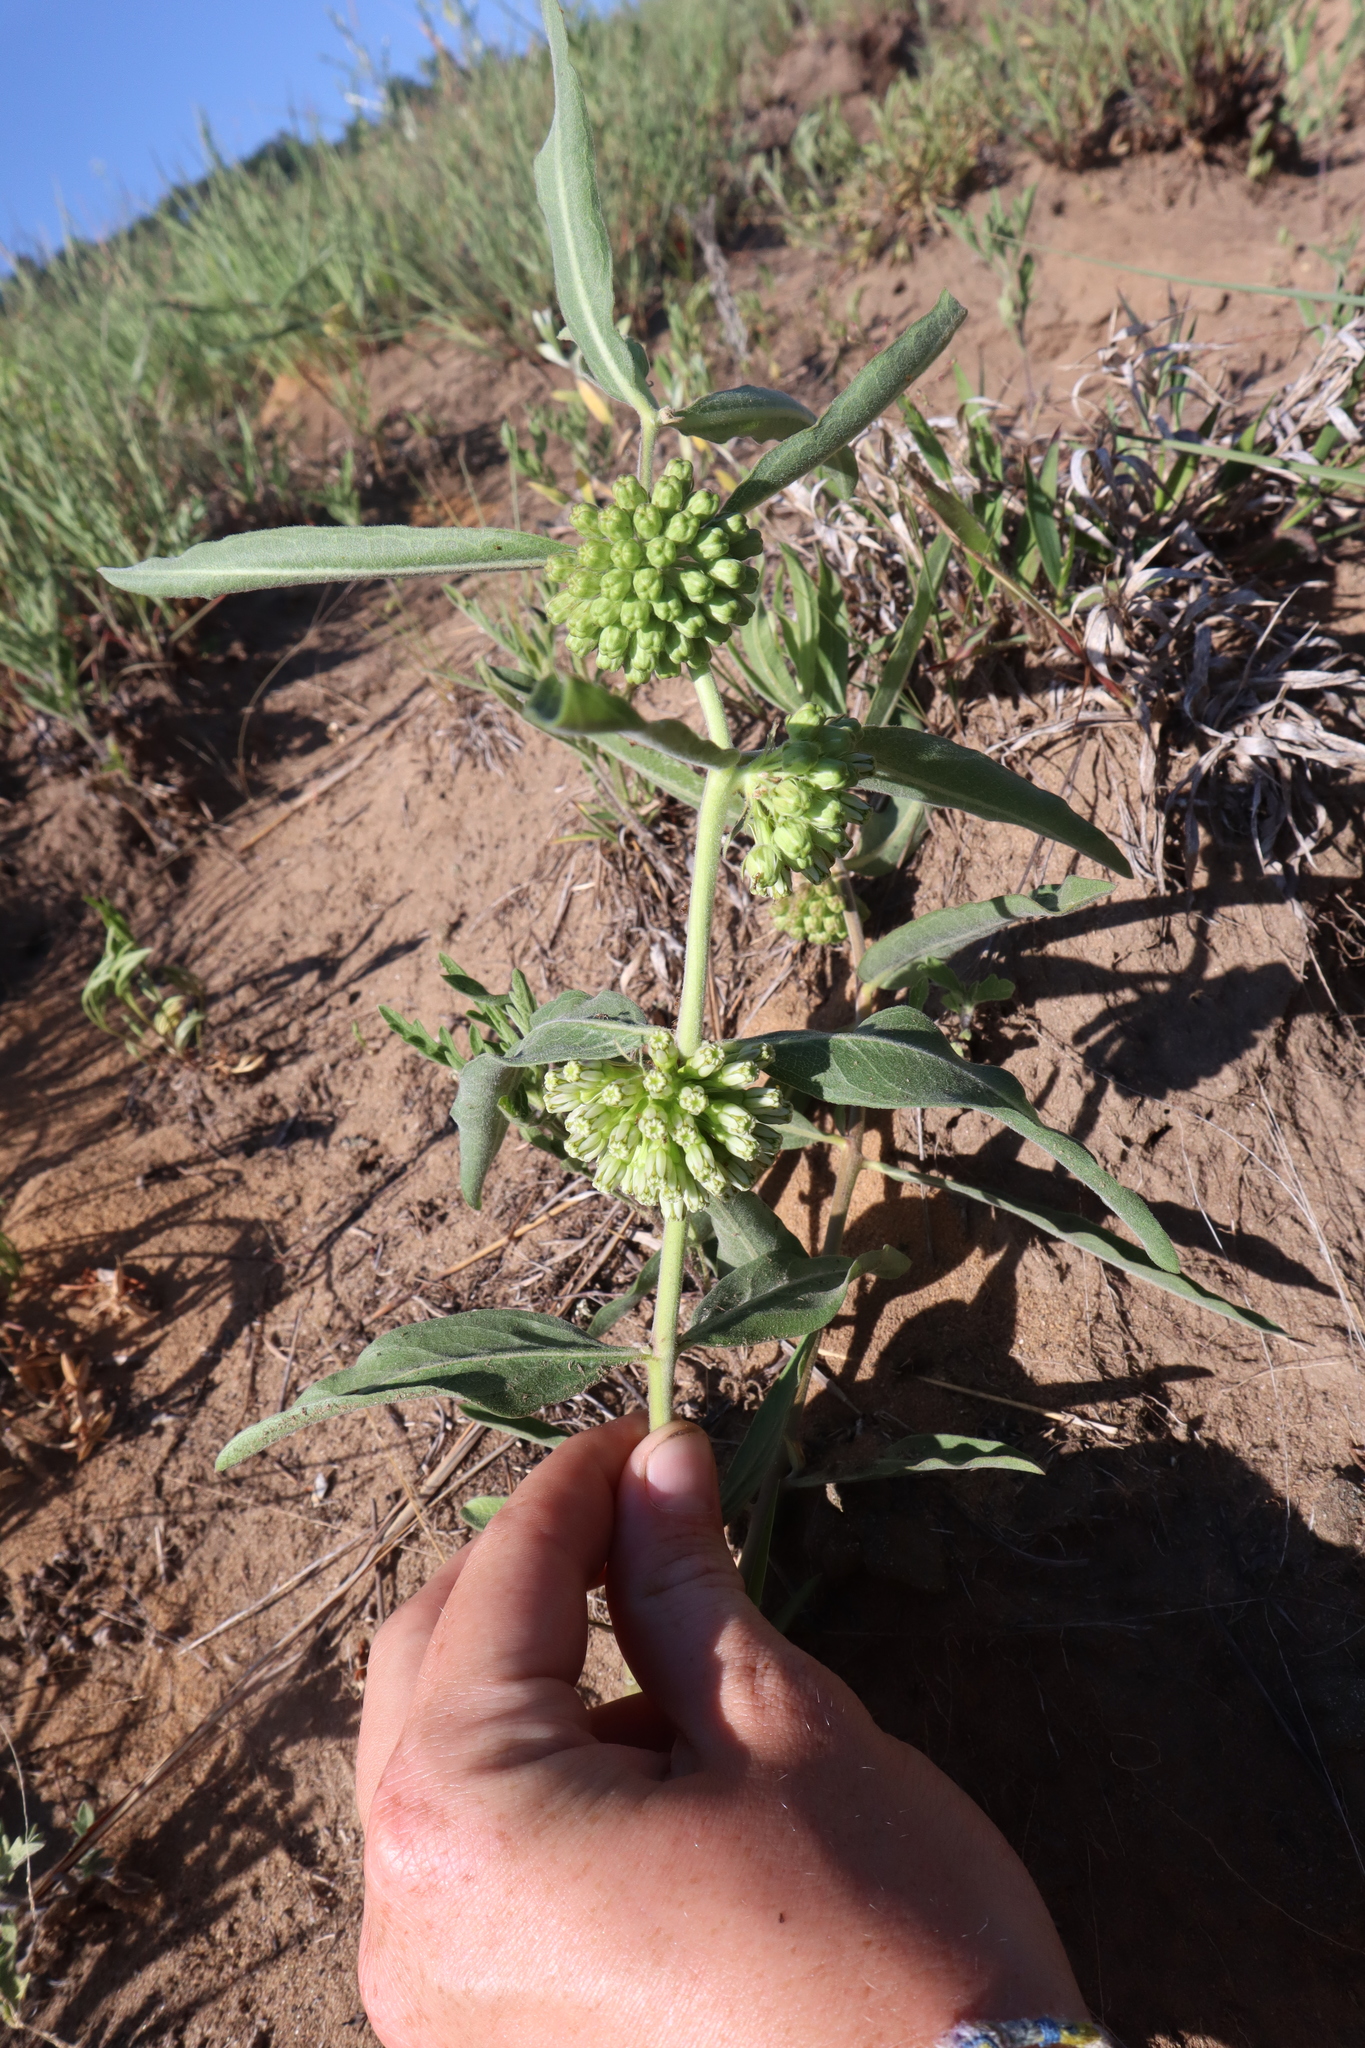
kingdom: Plantae
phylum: Tracheophyta
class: Magnoliopsida
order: Gentianales
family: Apocynaceae
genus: Asclepias
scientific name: Asclepias viridiflora
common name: Green comet milkweed
